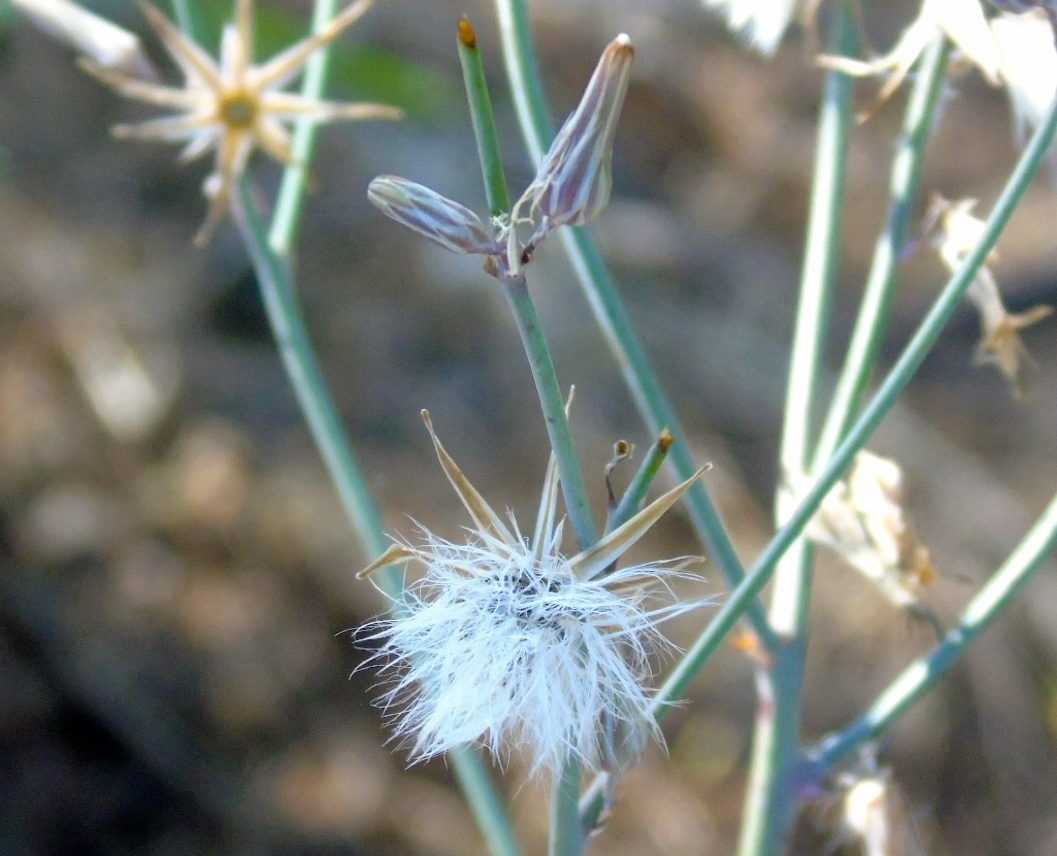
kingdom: Plantae
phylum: Tracheophyta
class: Magnoliopsida
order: Asterales
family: Asteraceae
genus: Launaea
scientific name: Launaea intybacea
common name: Achicoria azul
